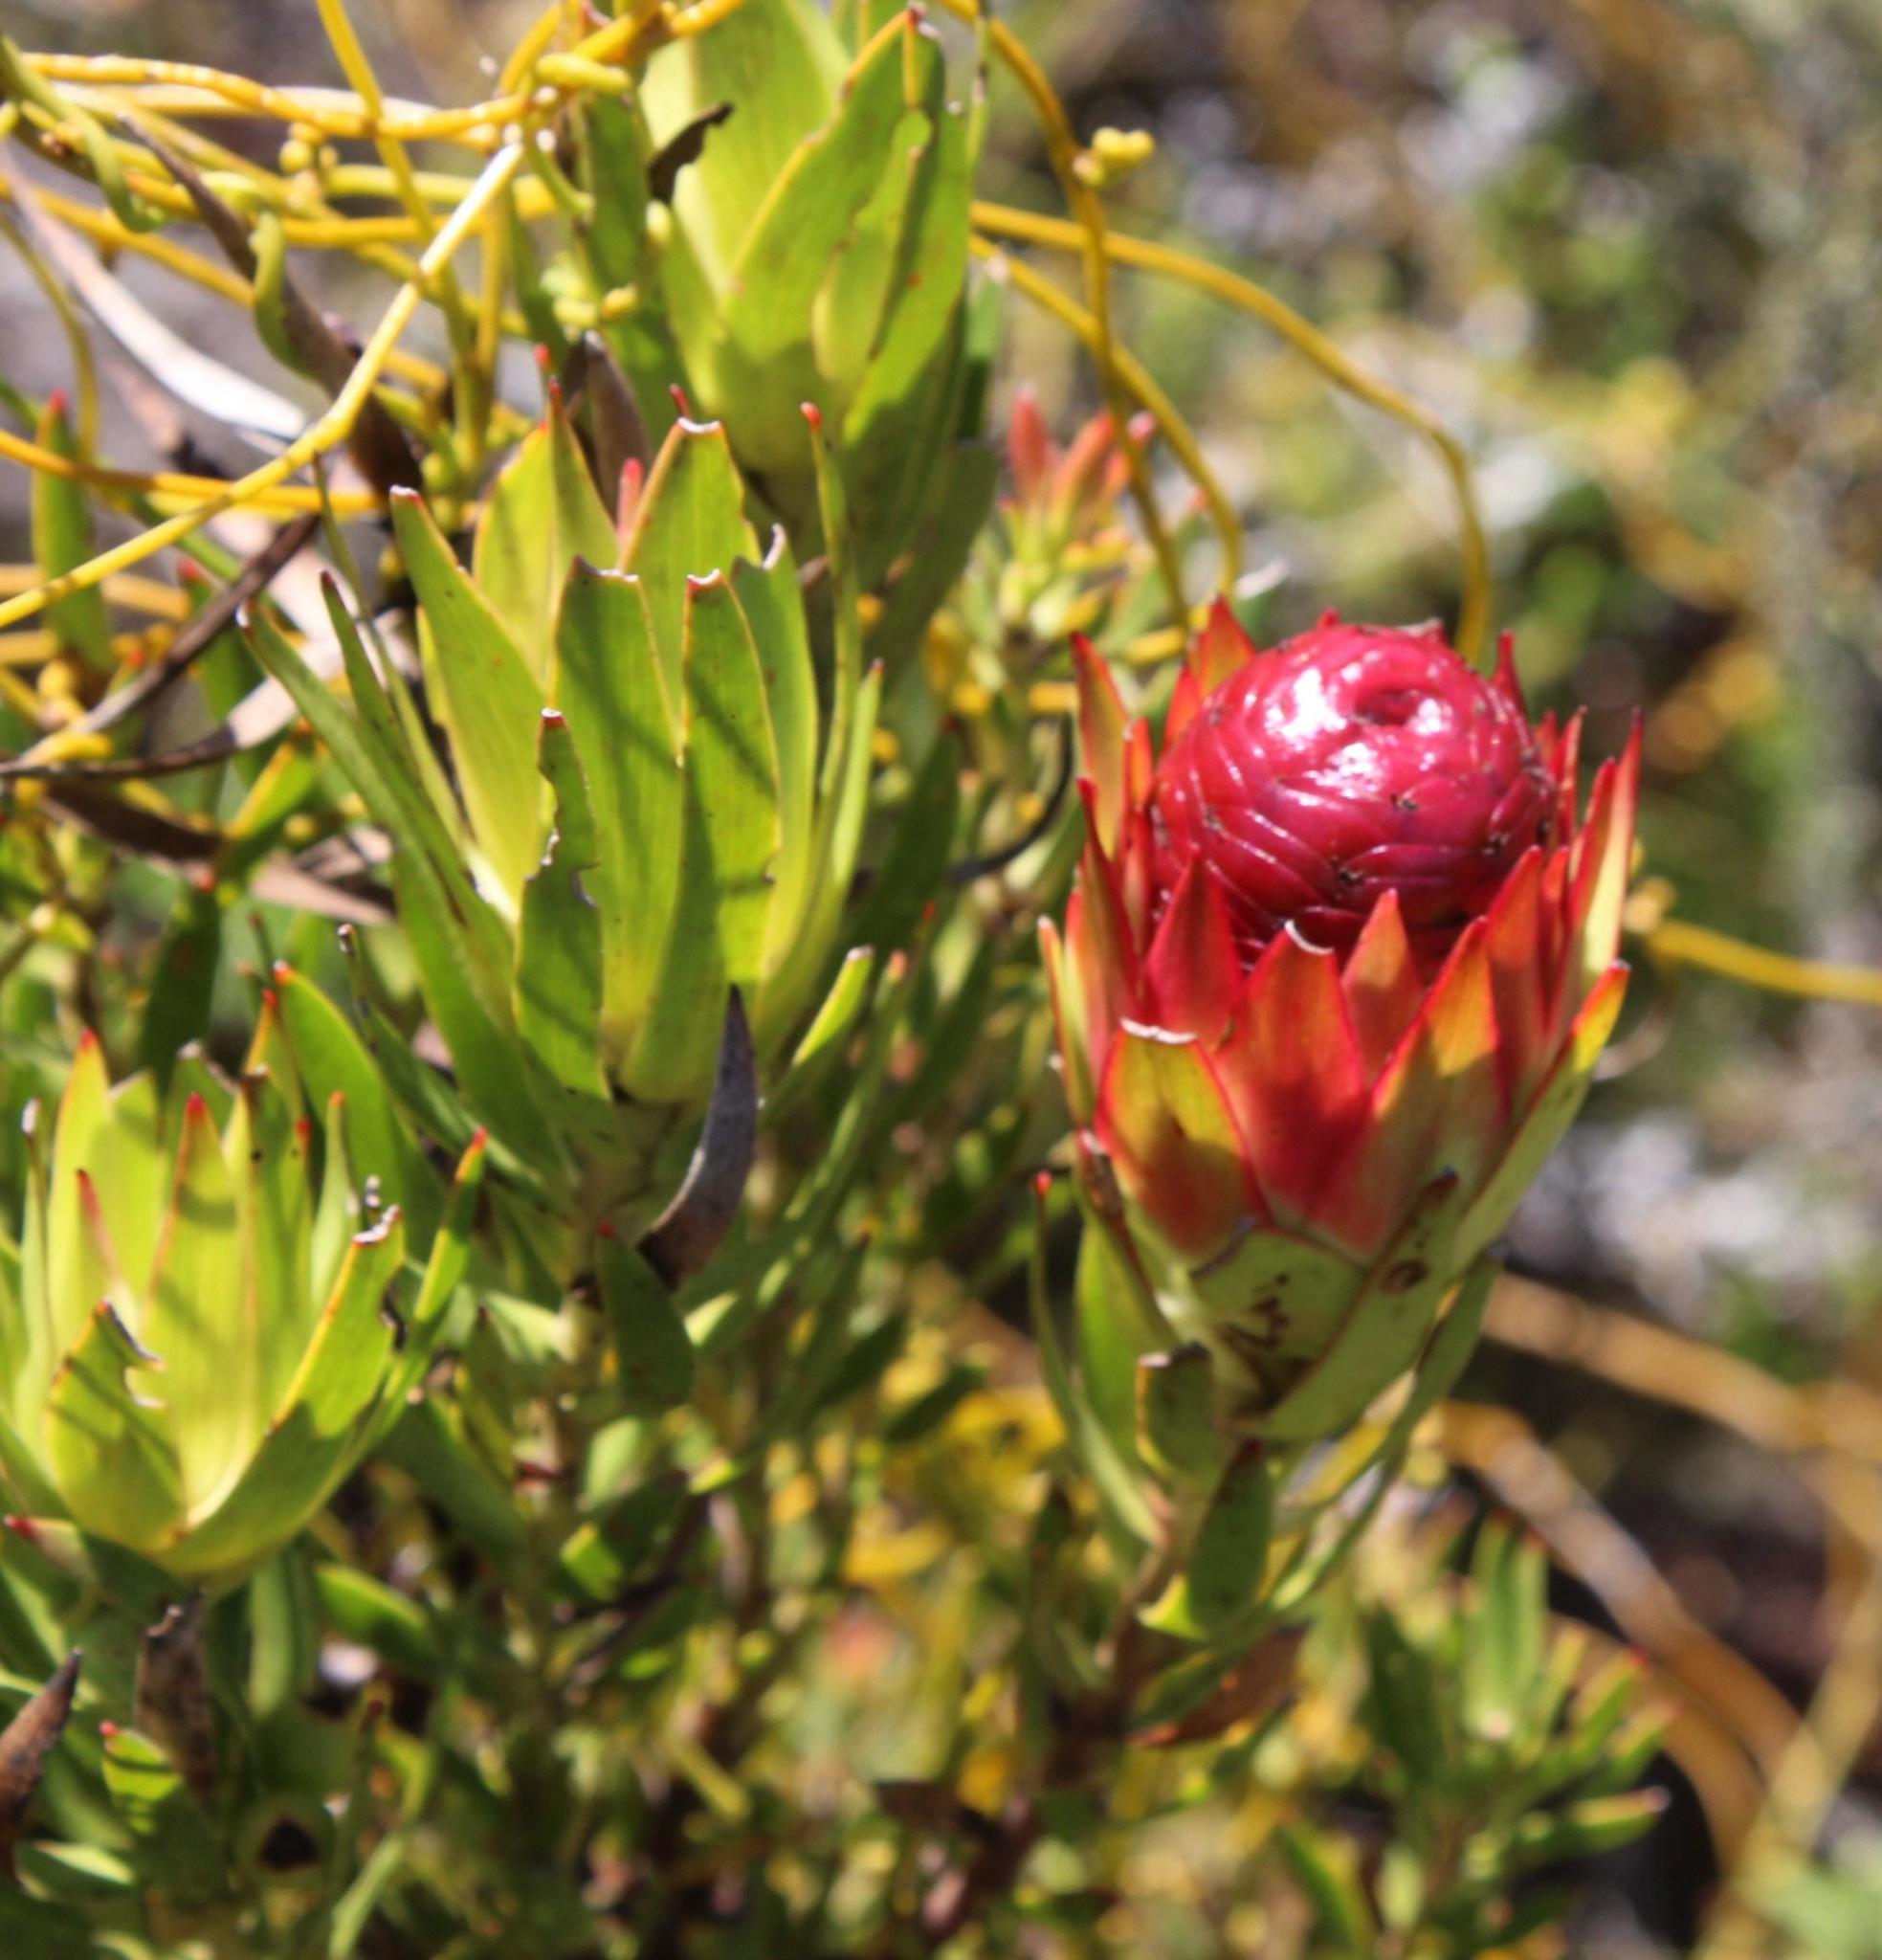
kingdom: Plantae
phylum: Tracheophyta
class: Magnoliopsida
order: Proteales
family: Proteaceae
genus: Leucadendron
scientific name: Leucadendron spissifolium
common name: Spear-leaf conebush
